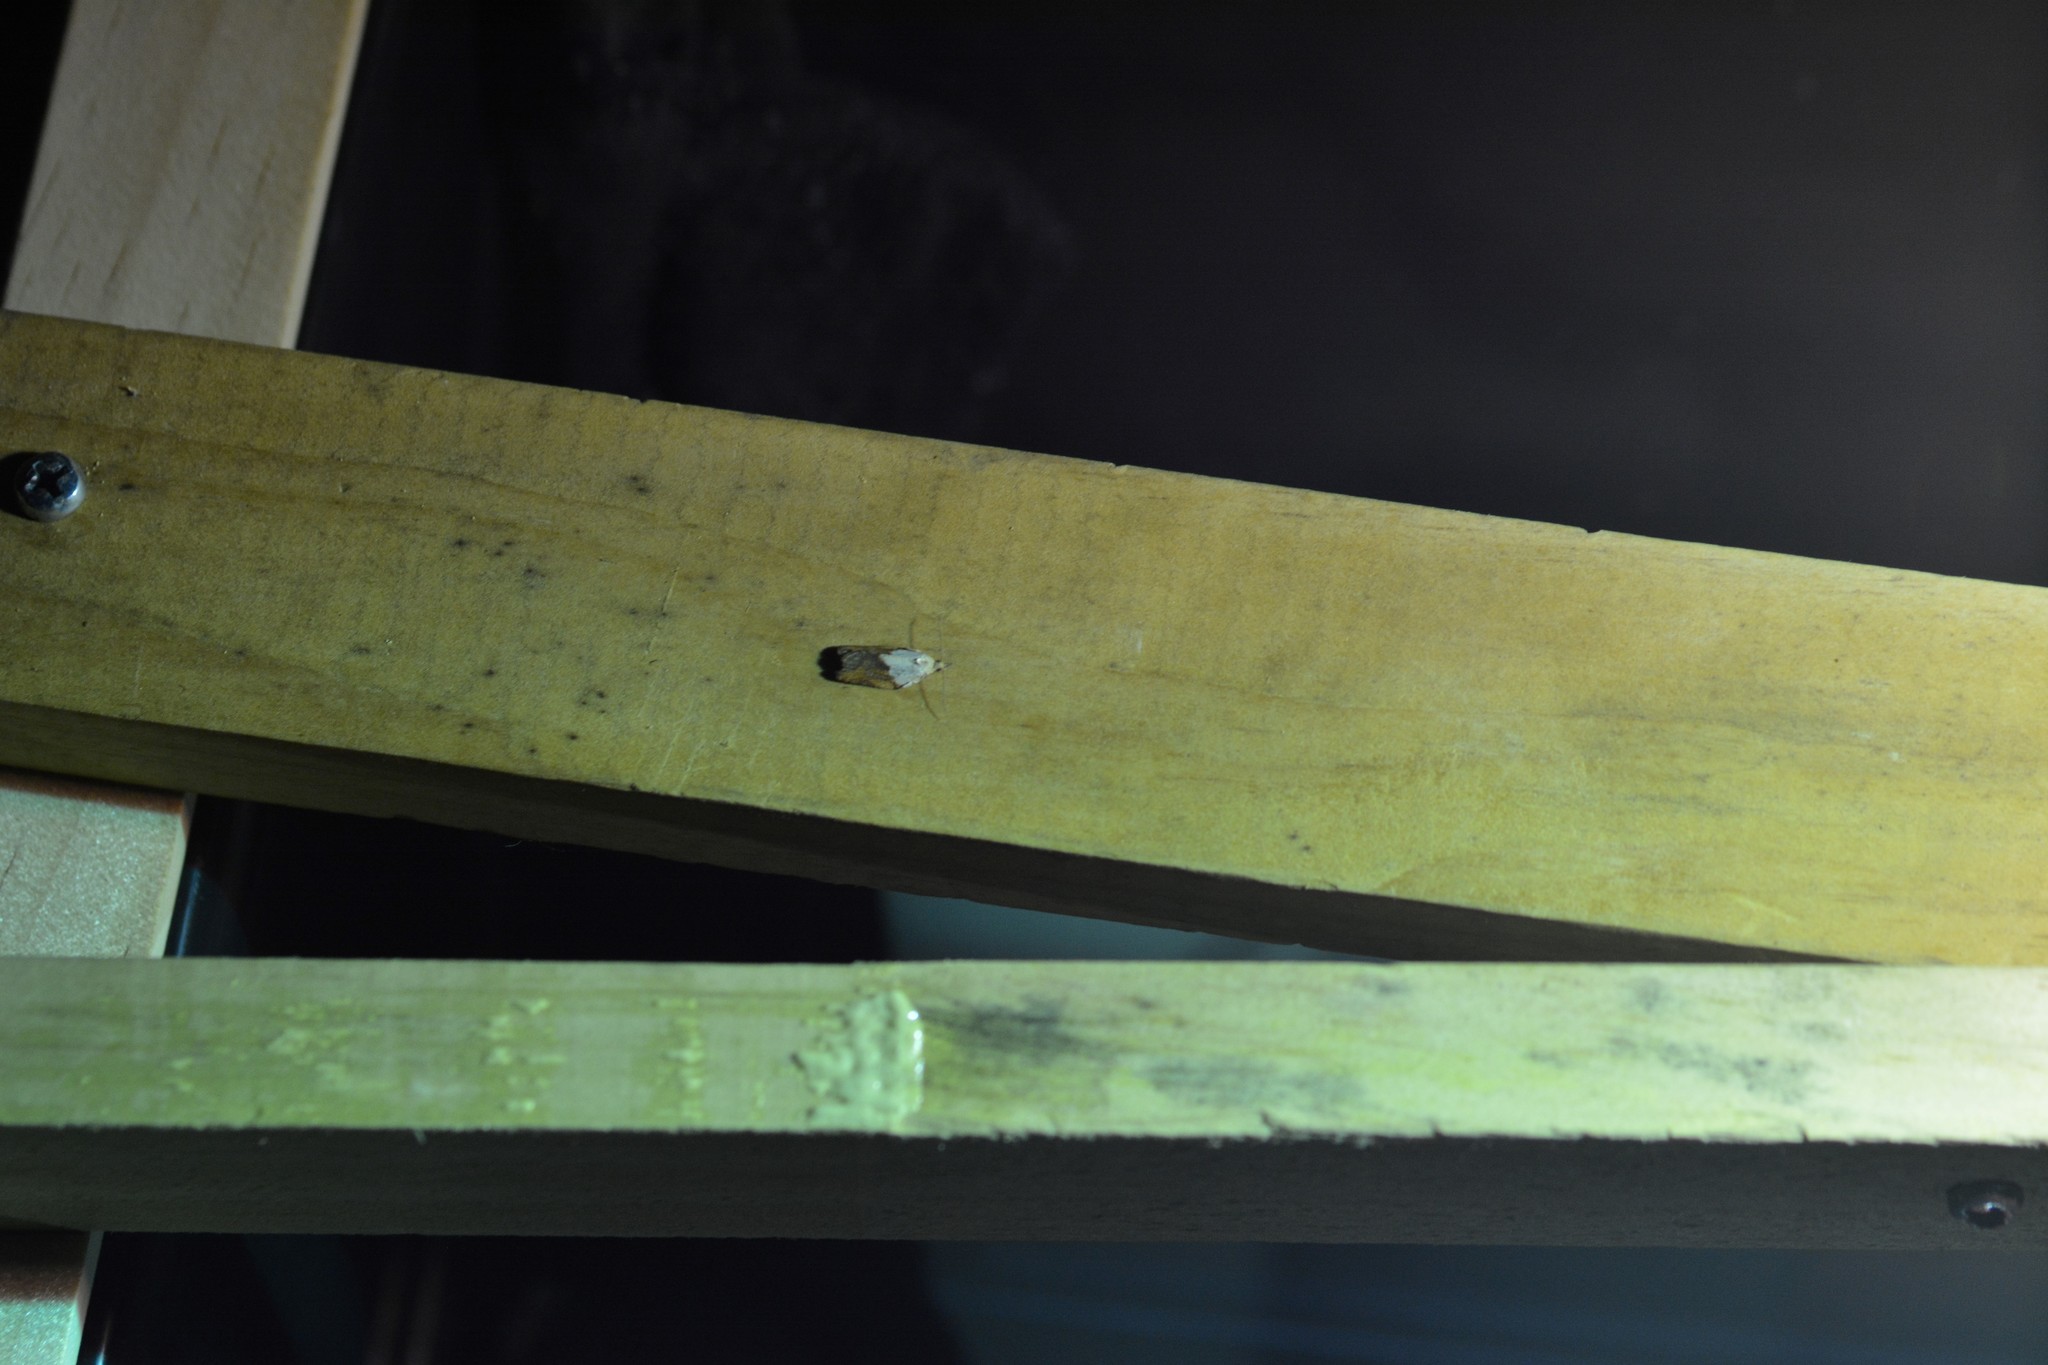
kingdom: Animalia
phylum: Arthropoda
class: Insecta
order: Lepidoptera
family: Tortricidae
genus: Epiphyas
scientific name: Epiphyas postvittana
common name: Light brown apple moth
